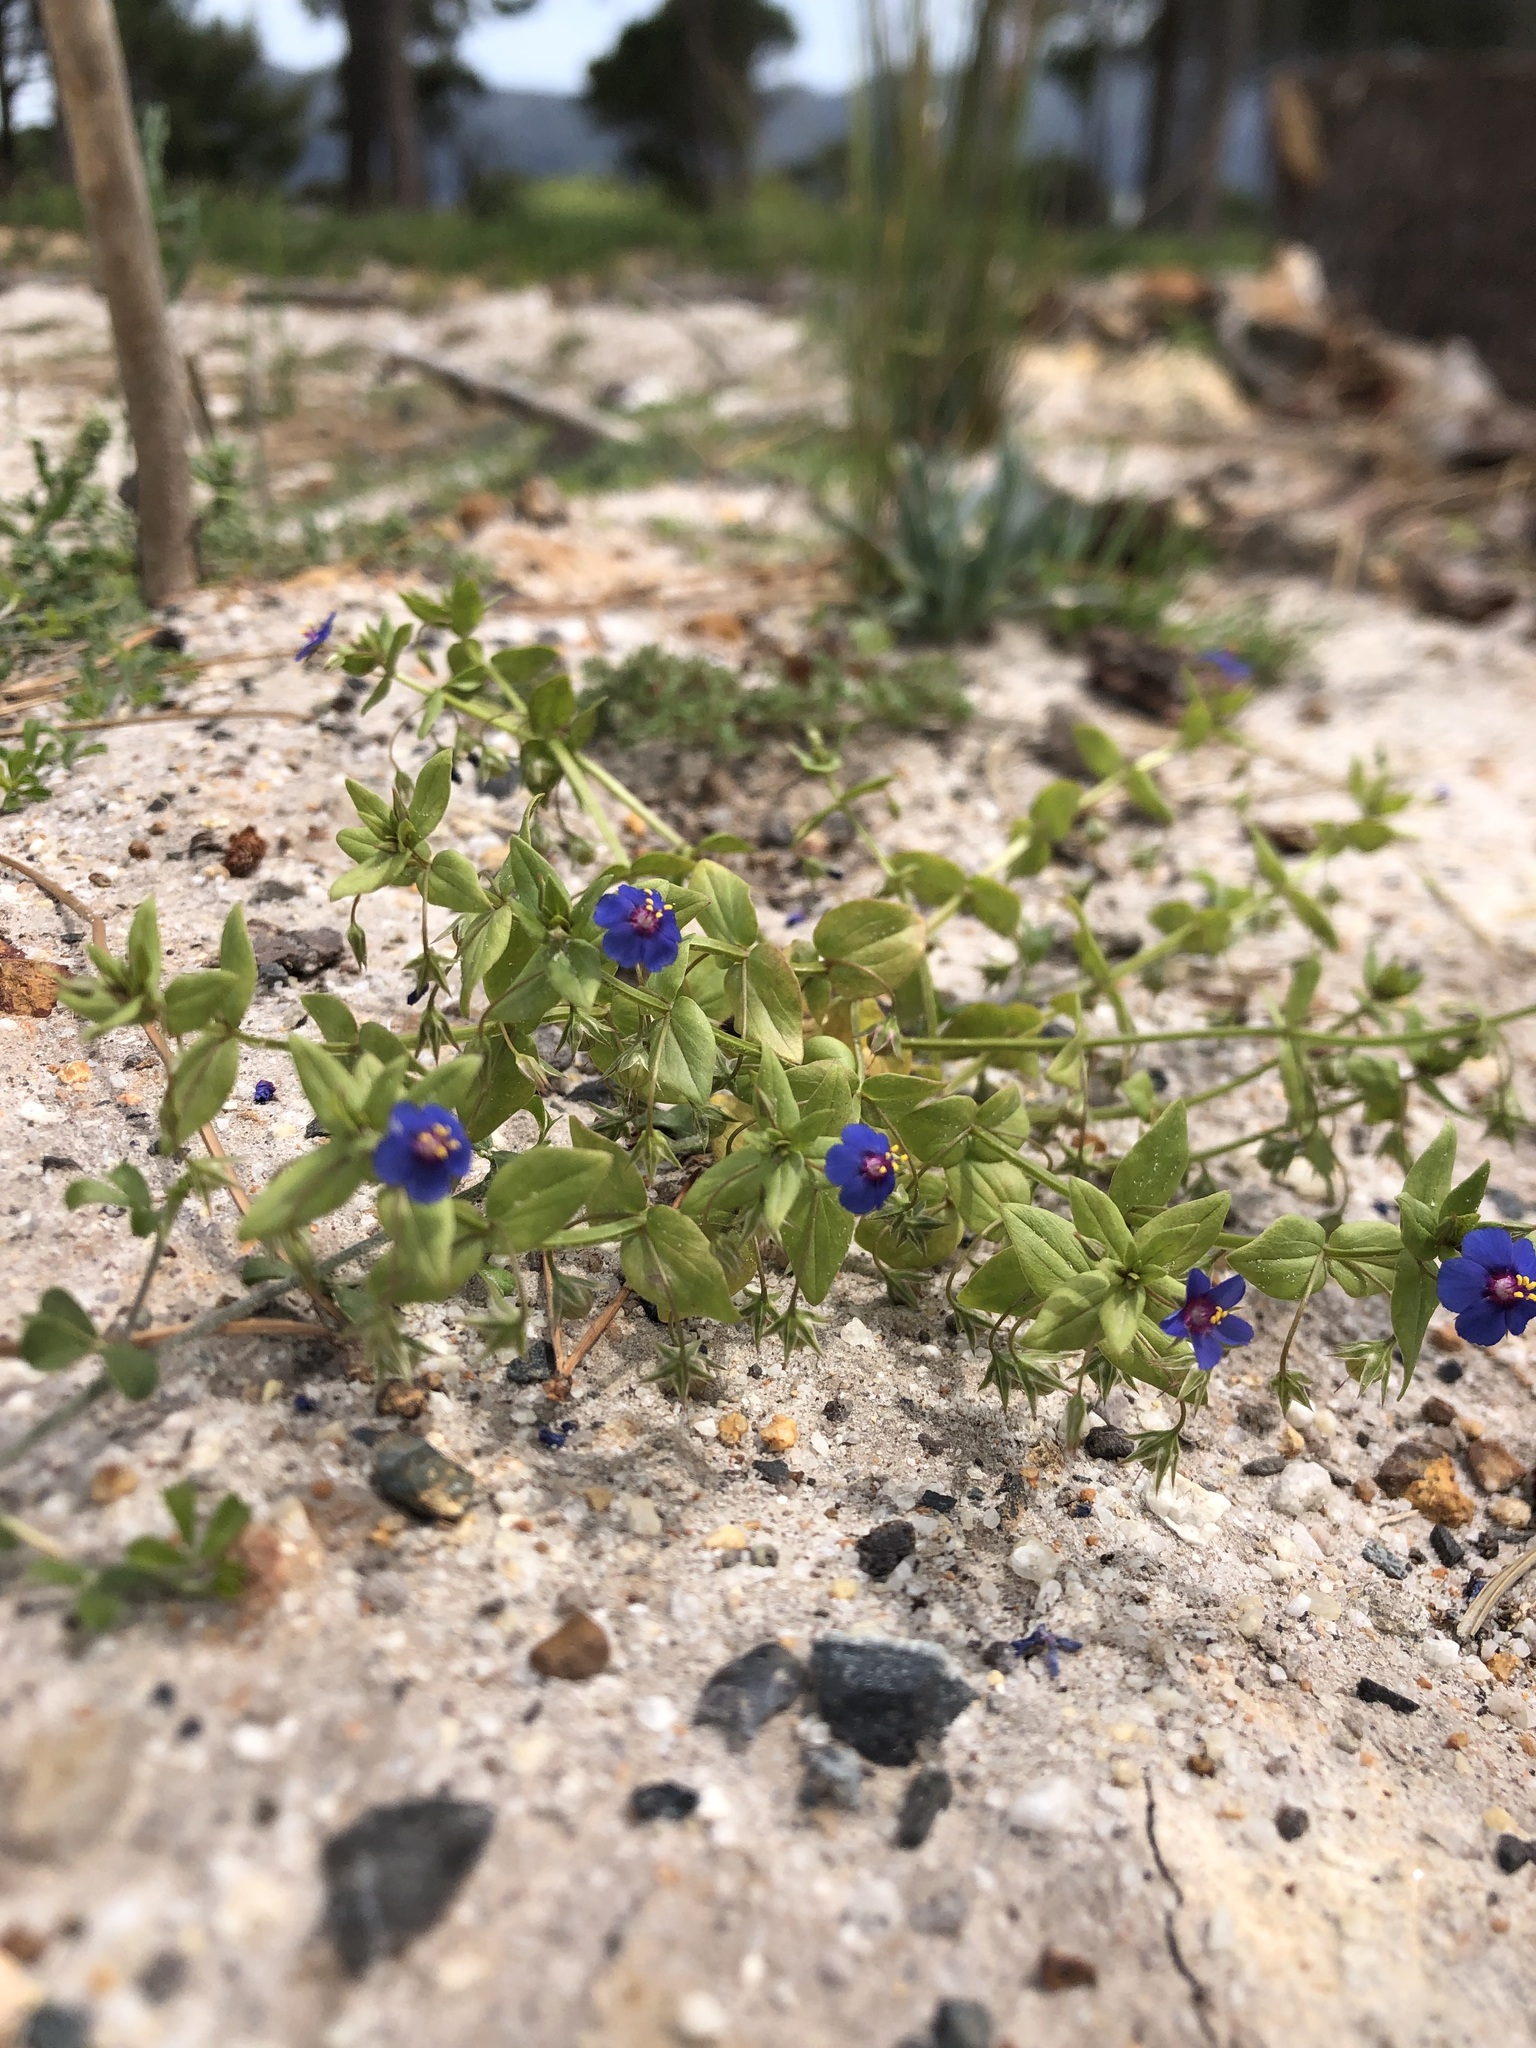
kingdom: Plantae
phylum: Tracheophyta
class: Magnoliopsida
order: Ericales
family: Primulaceae
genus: Lysimachia
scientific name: Lysimachia foemina
